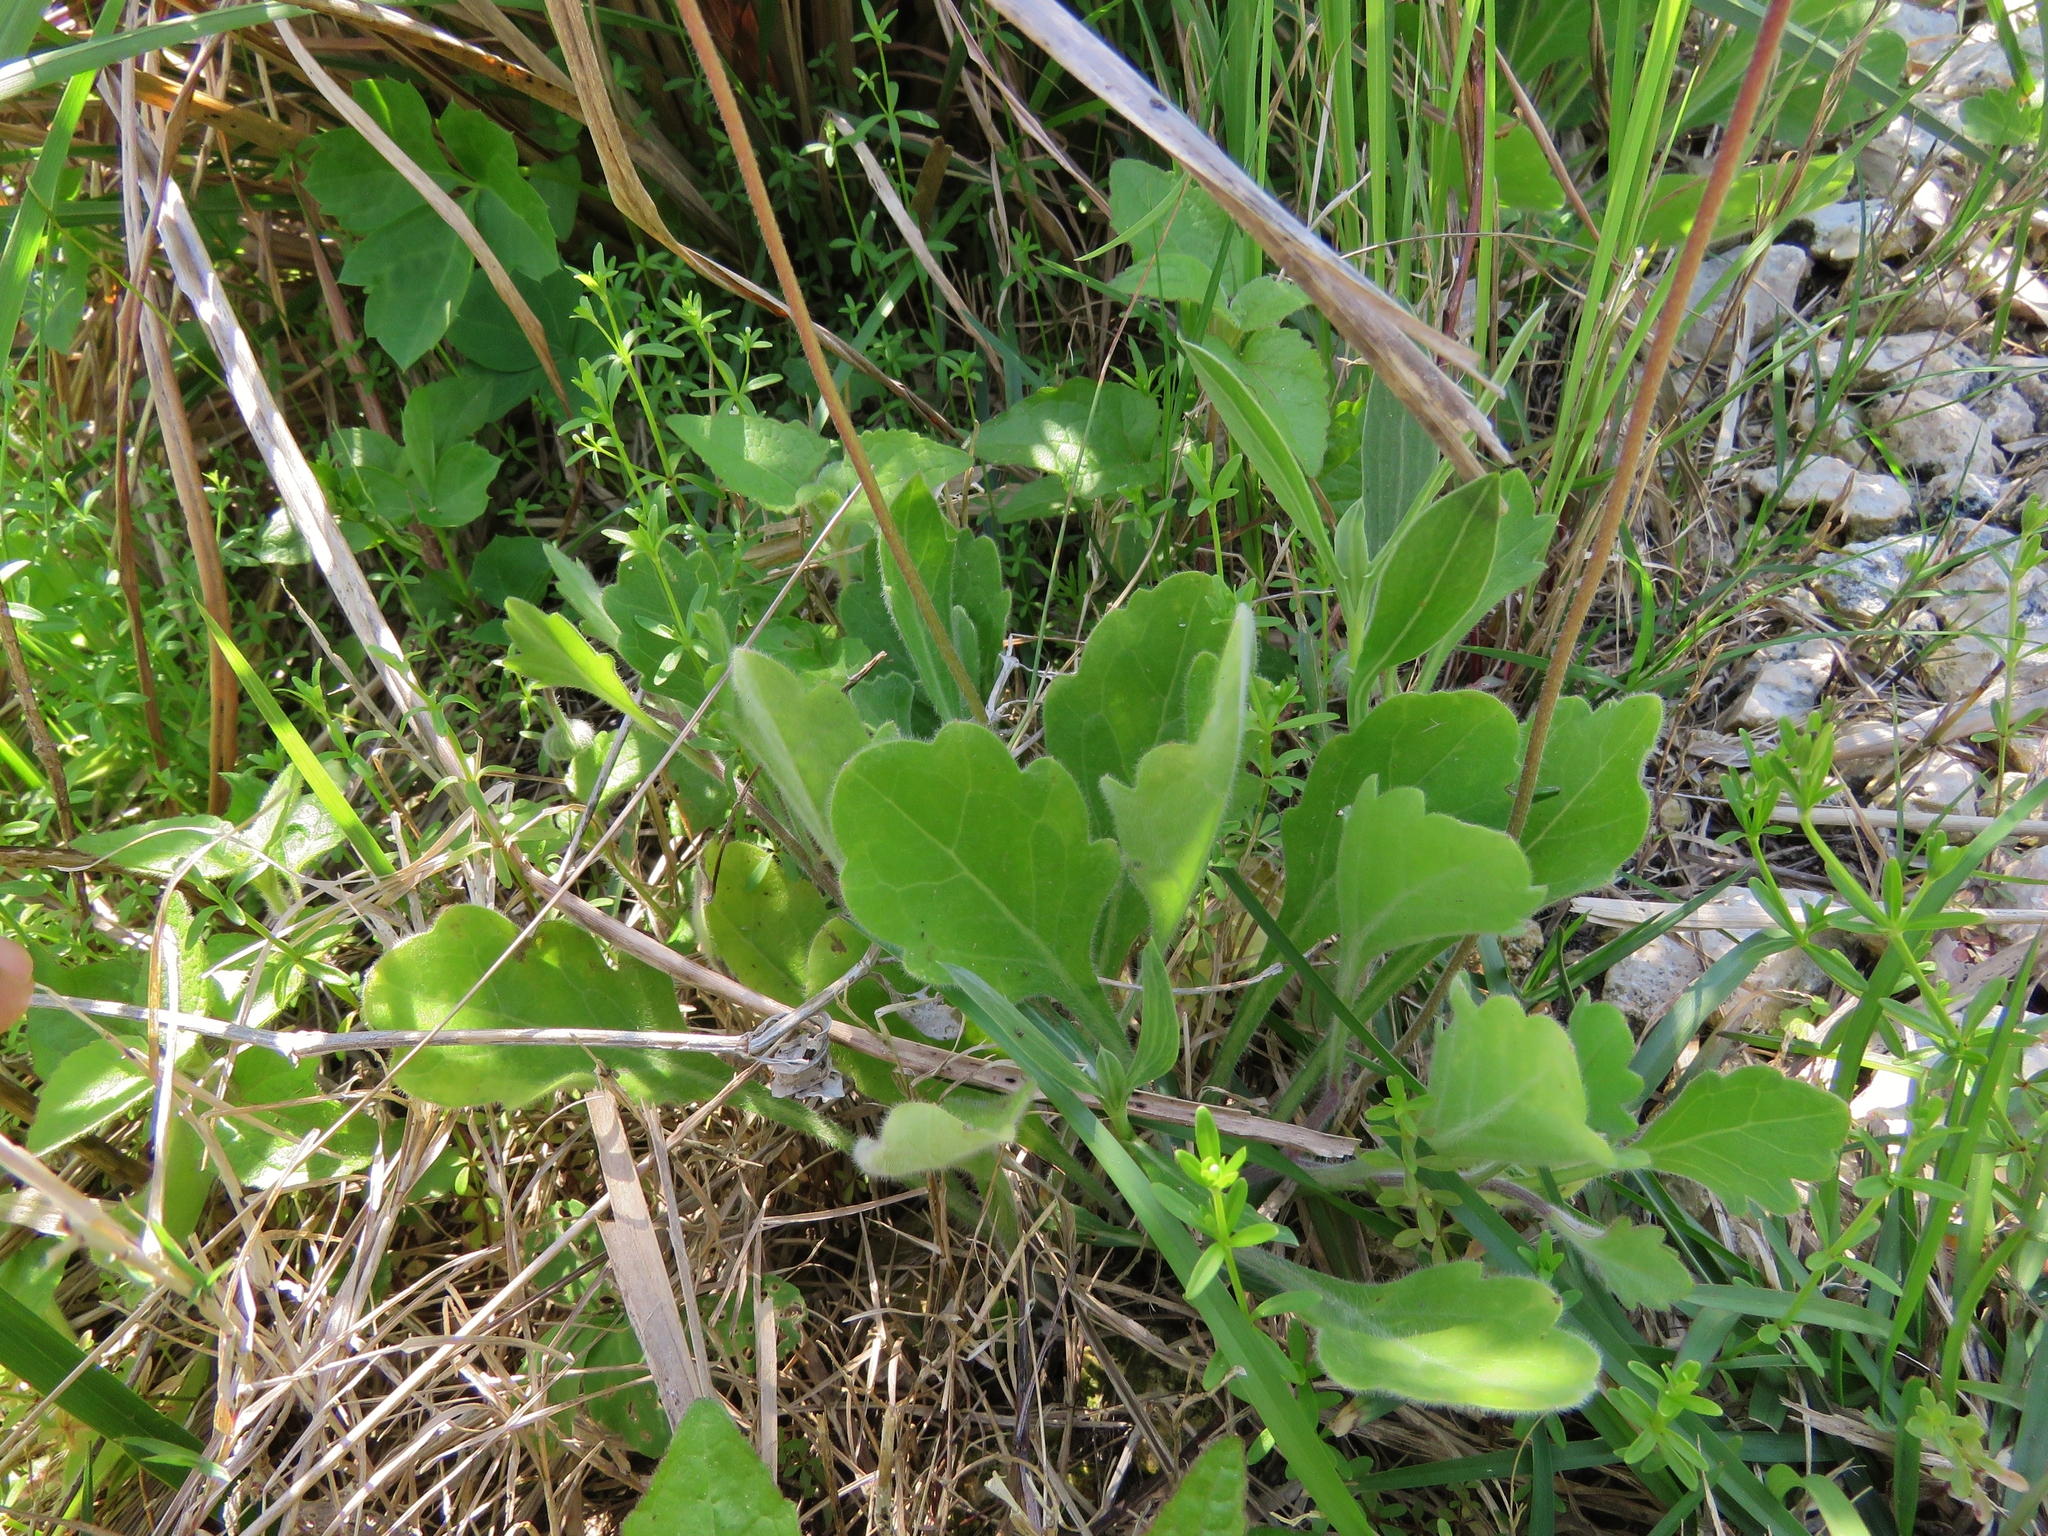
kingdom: Plantae
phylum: Tracheophyta
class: Magnoliopsida
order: Asterales
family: Asteraceae
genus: Erigeron
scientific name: Erigeron philadelphicus
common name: Robin's-plantain
